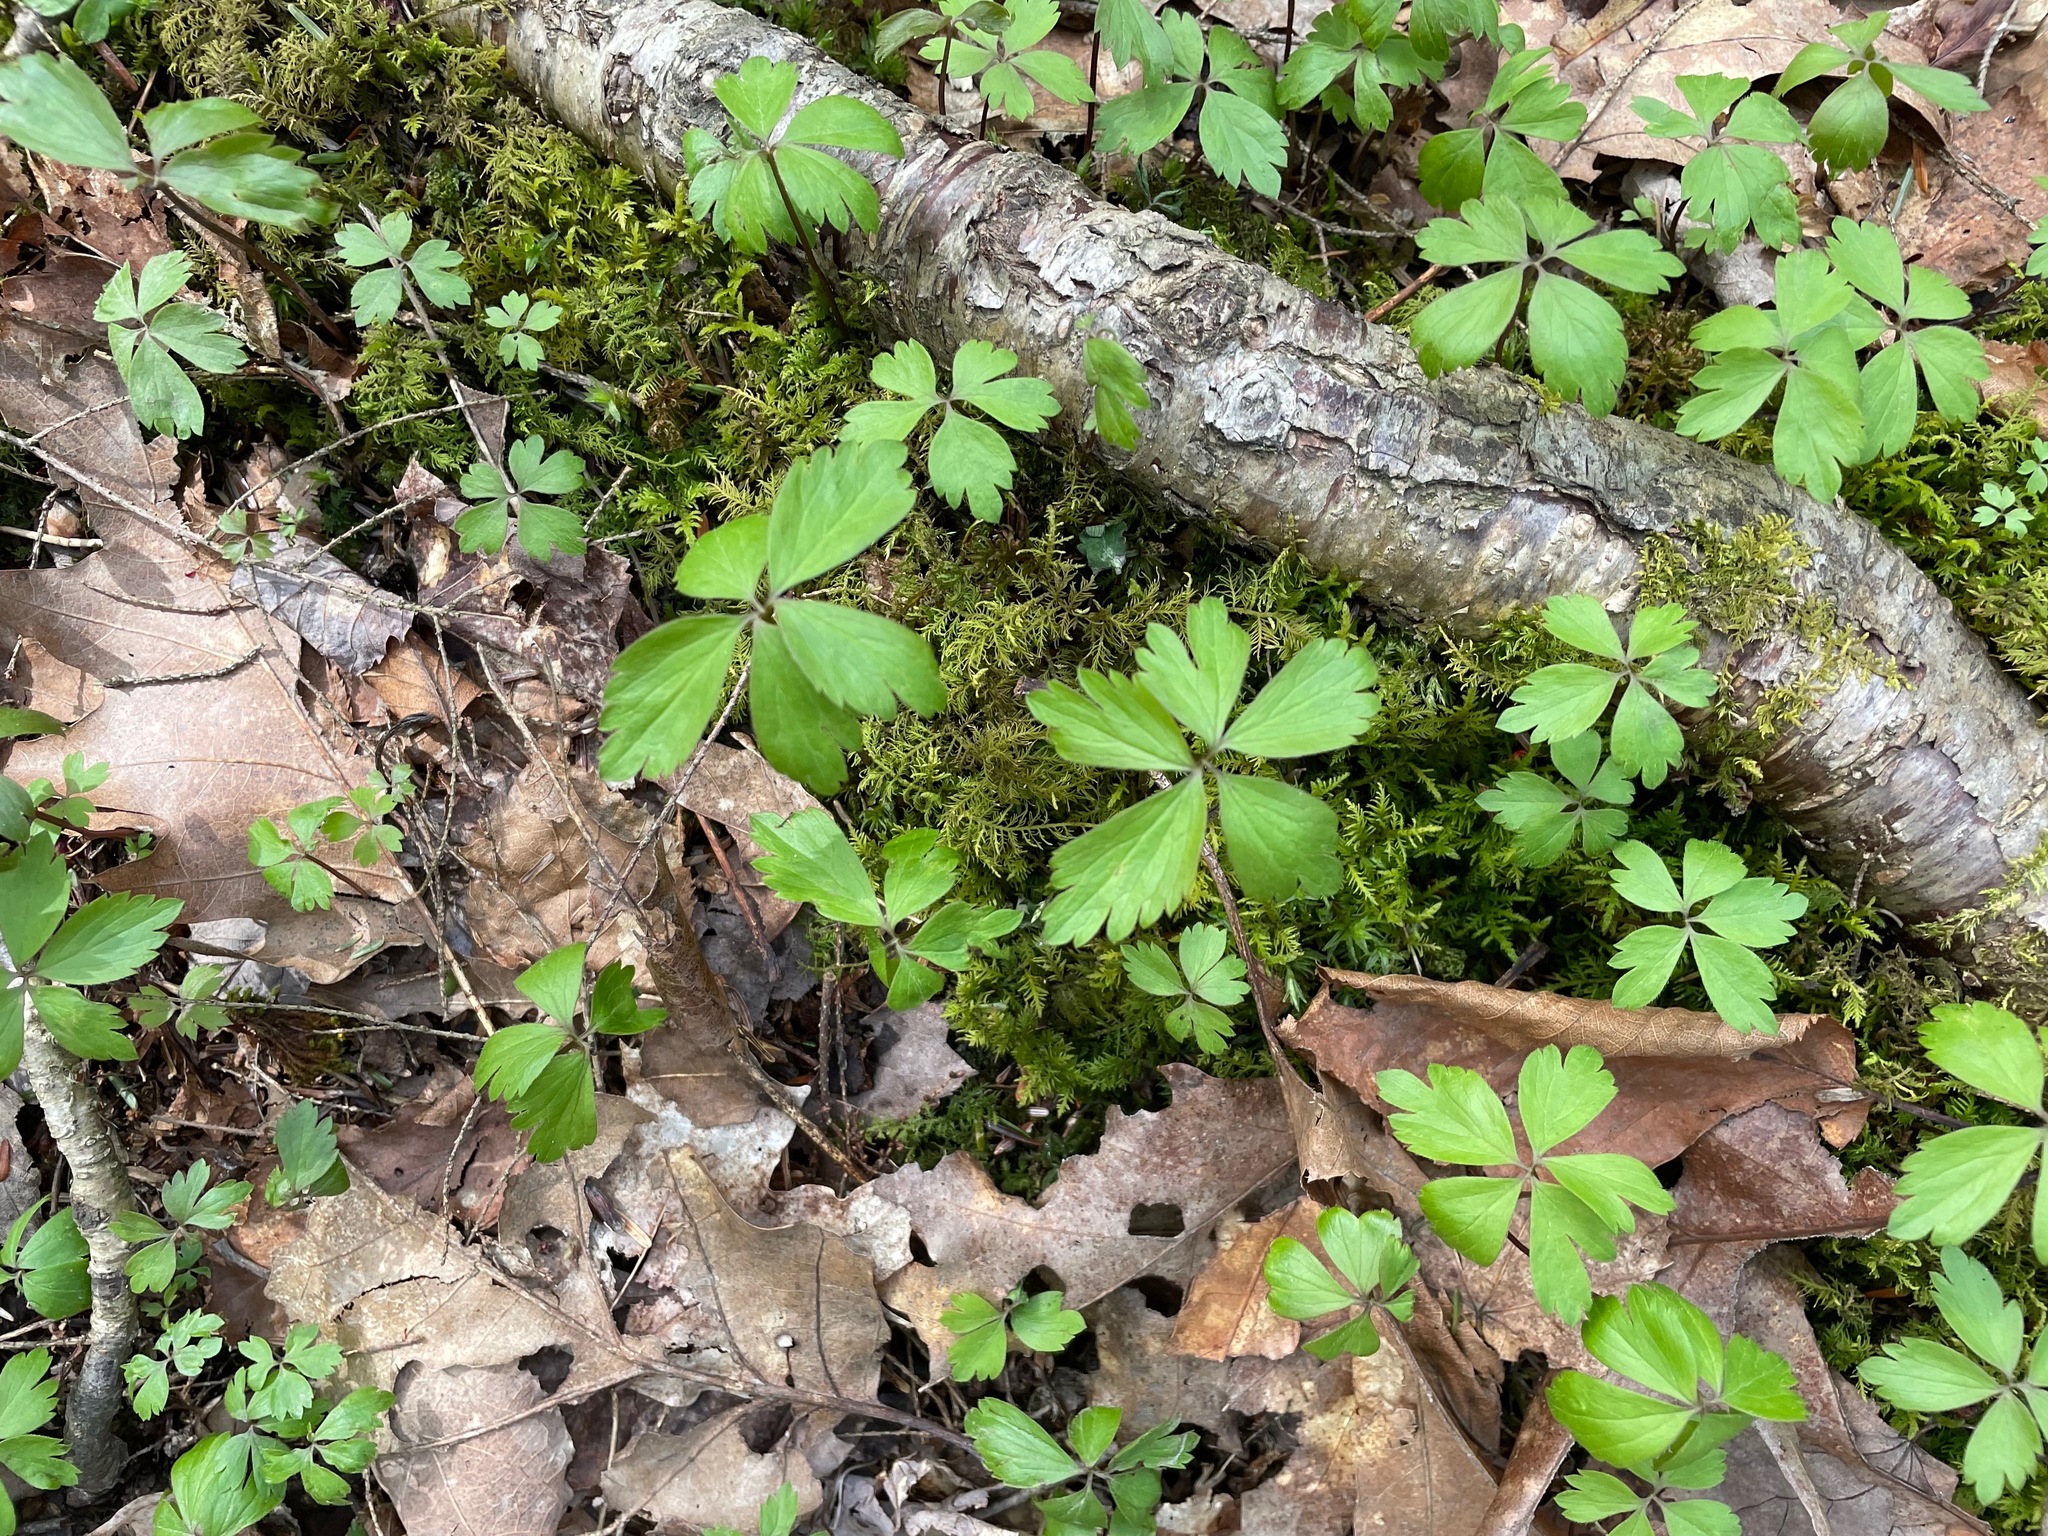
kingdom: Plantae
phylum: Tracheophyta
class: Magnoliopsida
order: Ranunculales
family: Ranunculaceae
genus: Anemone
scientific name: Anemone quinquefolia
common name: Wood anemone
